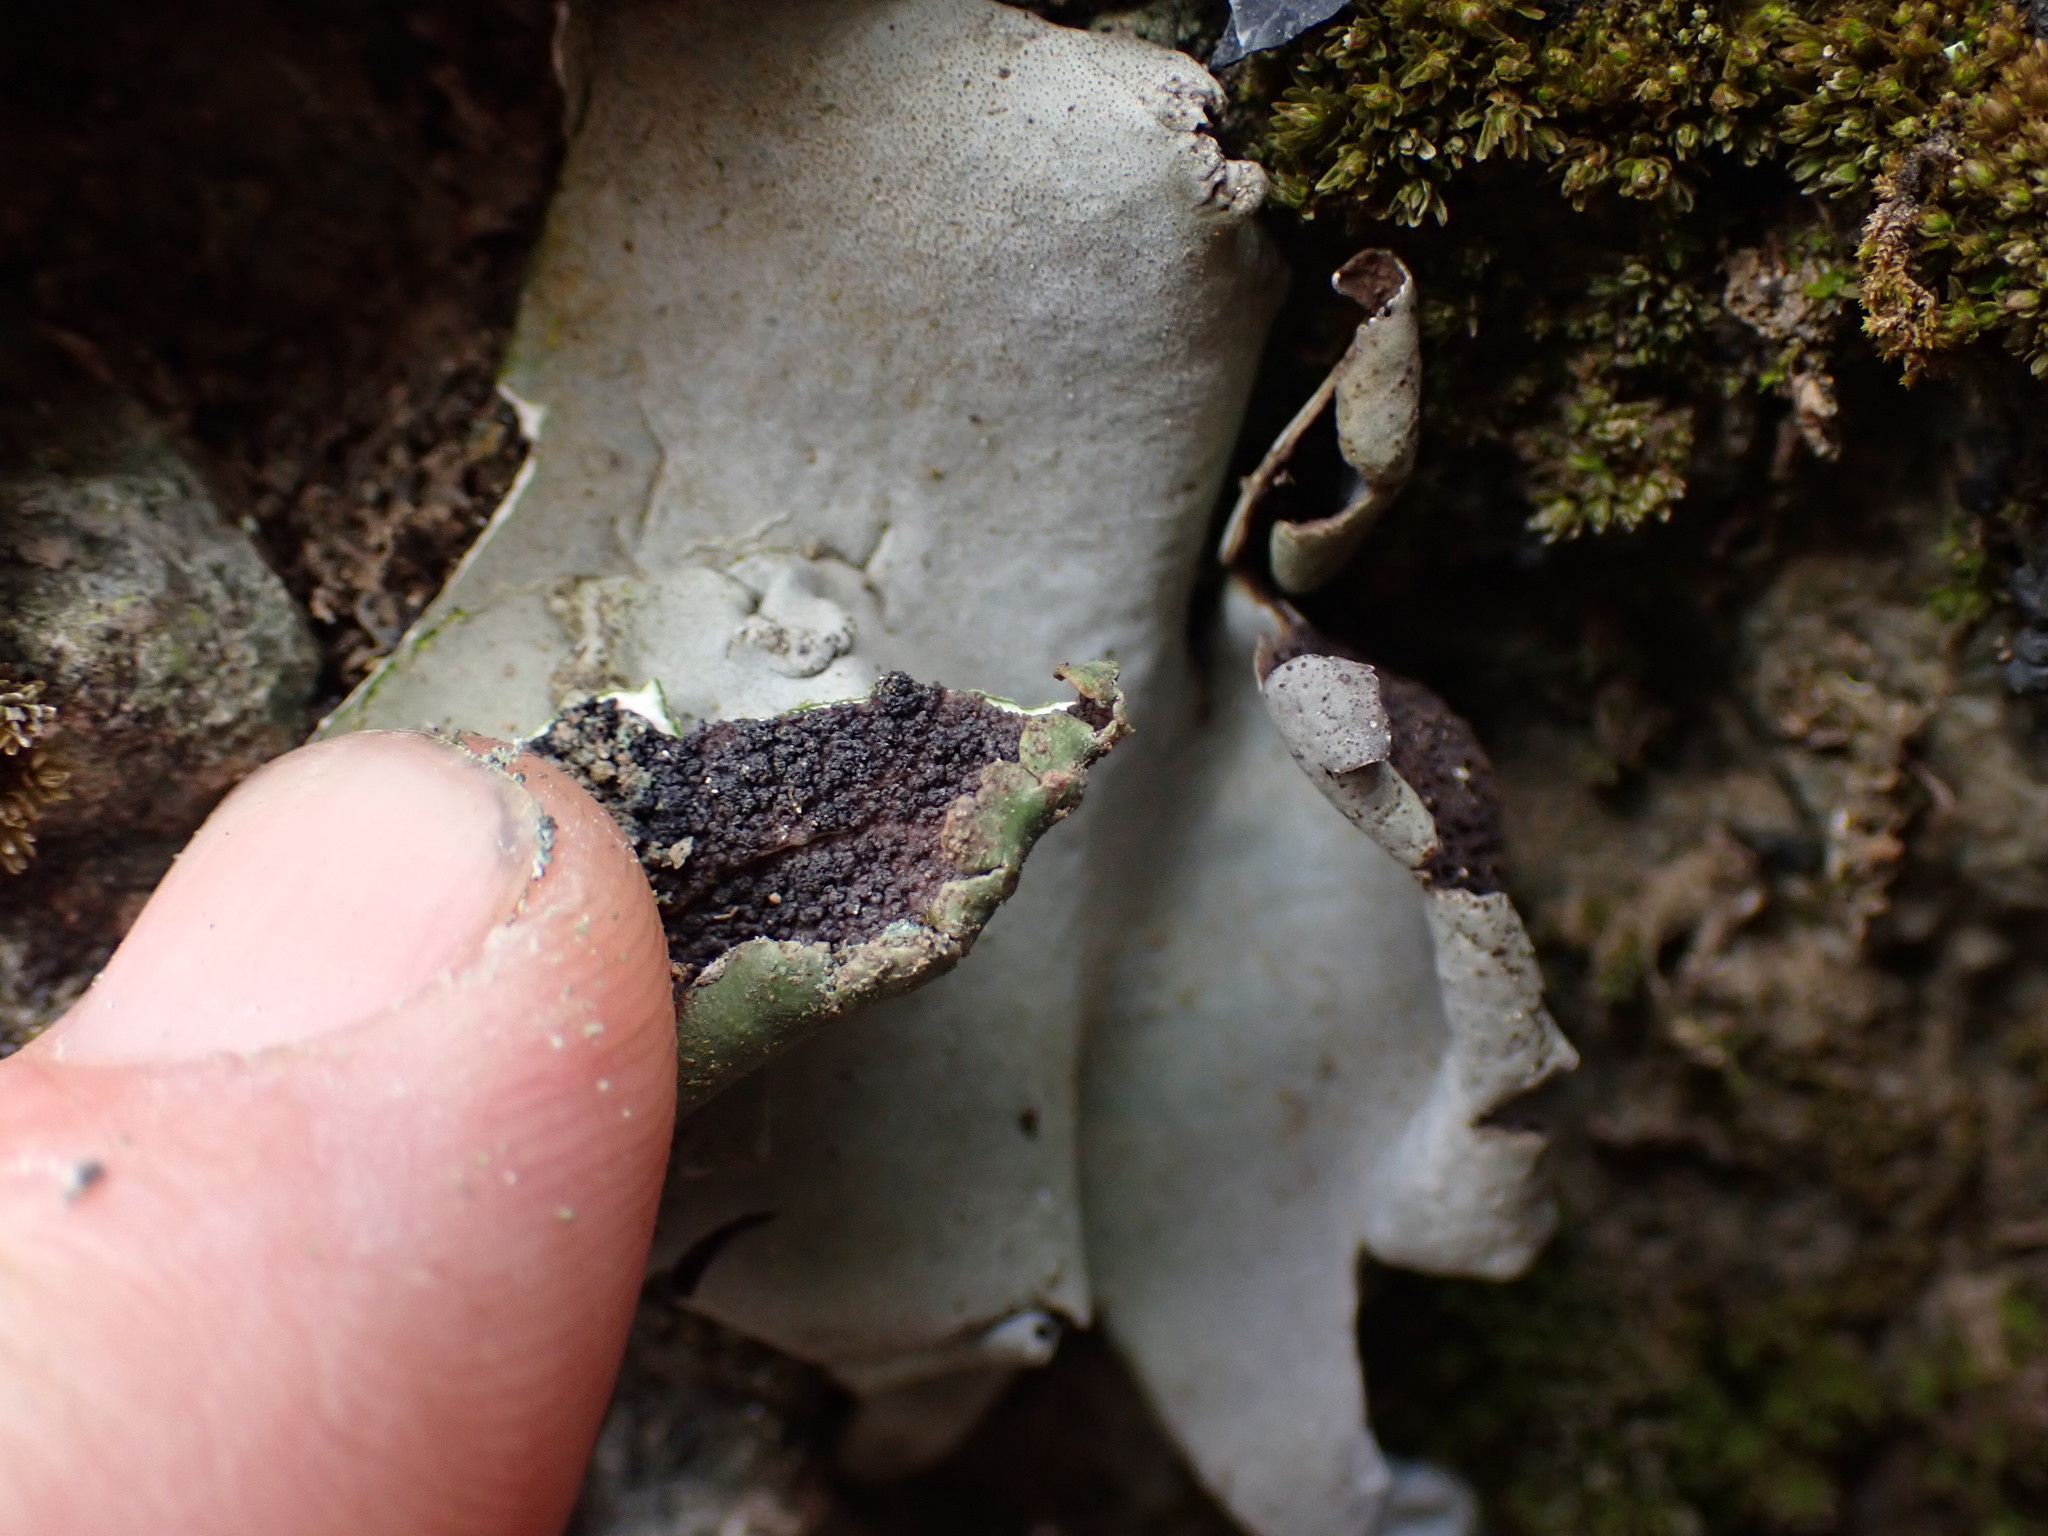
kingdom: Fungi
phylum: Ascomycota
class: Lecanoromycetes
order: Umbilicariales
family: Umbilicariaceae
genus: Umbilicaria
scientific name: Umbilicaria americana
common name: Frosted rock tripe
